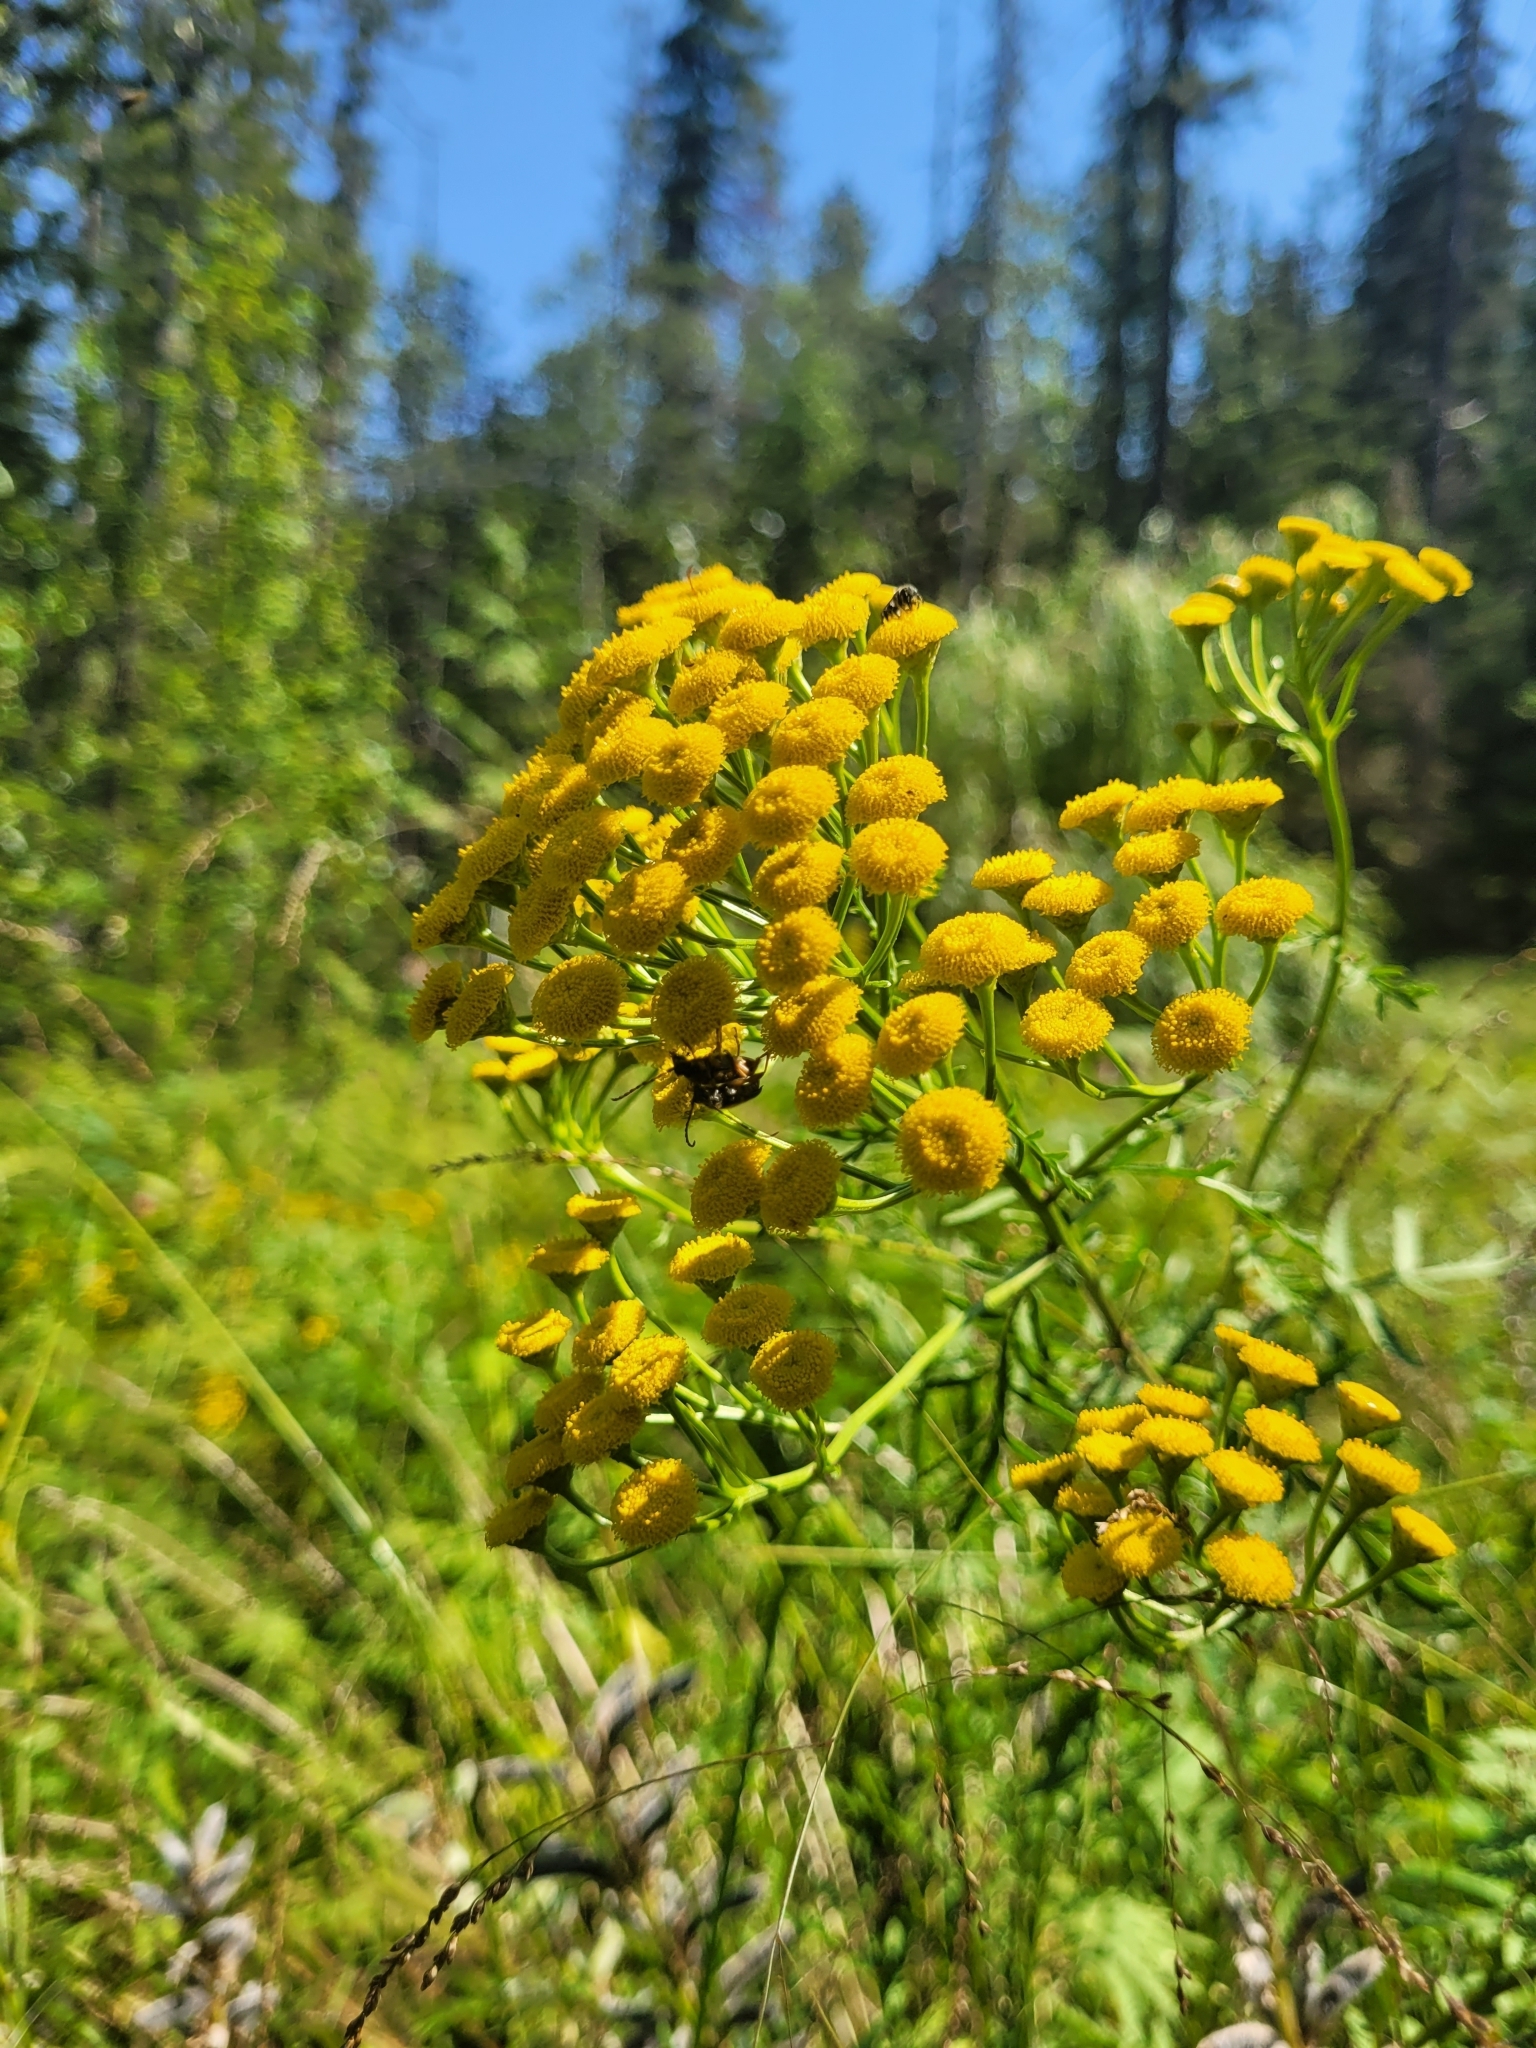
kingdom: Plantae
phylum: Tracheophyta
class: Magnoliopsida
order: Asterales
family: Asteraceae
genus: Tanacetum
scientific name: Tanacetum vulgare
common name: Common tansy
